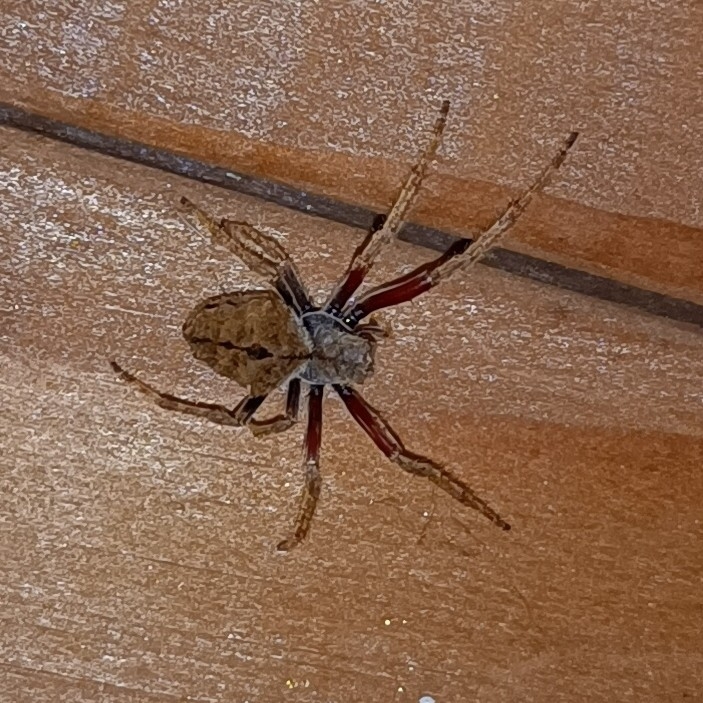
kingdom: Animalia
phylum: Arthropoda
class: Arachnida
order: Araneae
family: Araneidae
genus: Eriophora
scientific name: Eriophora pustulosa
